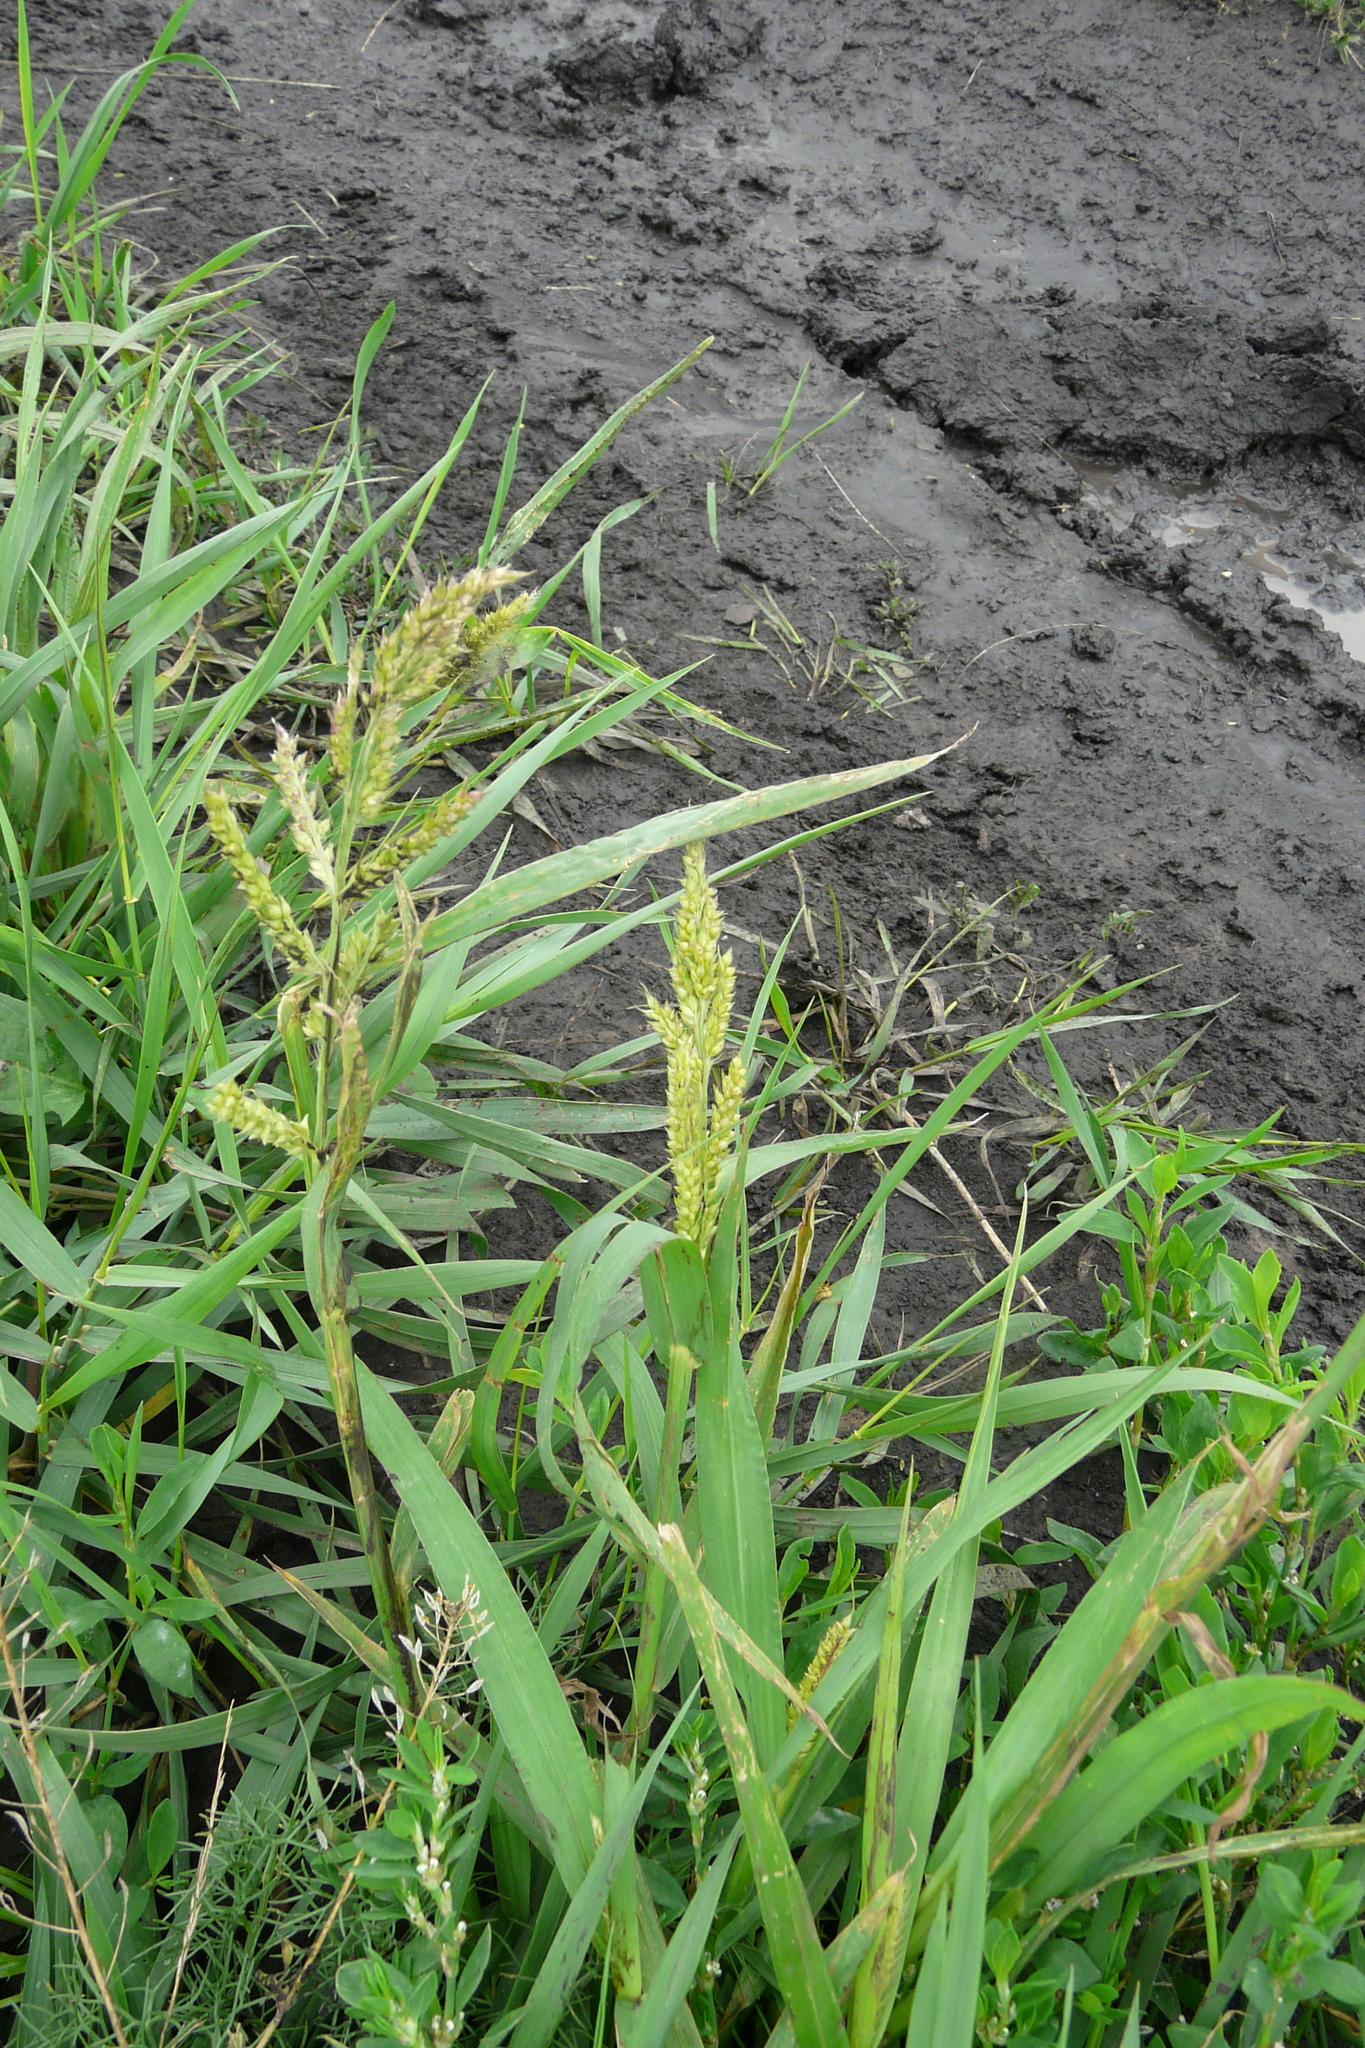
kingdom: Plantae
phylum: Tracheophyta
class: Liliopsida
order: Poales
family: Poaceae
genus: Echinochloa
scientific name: Echinochloa crus-galli
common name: Cockspur
